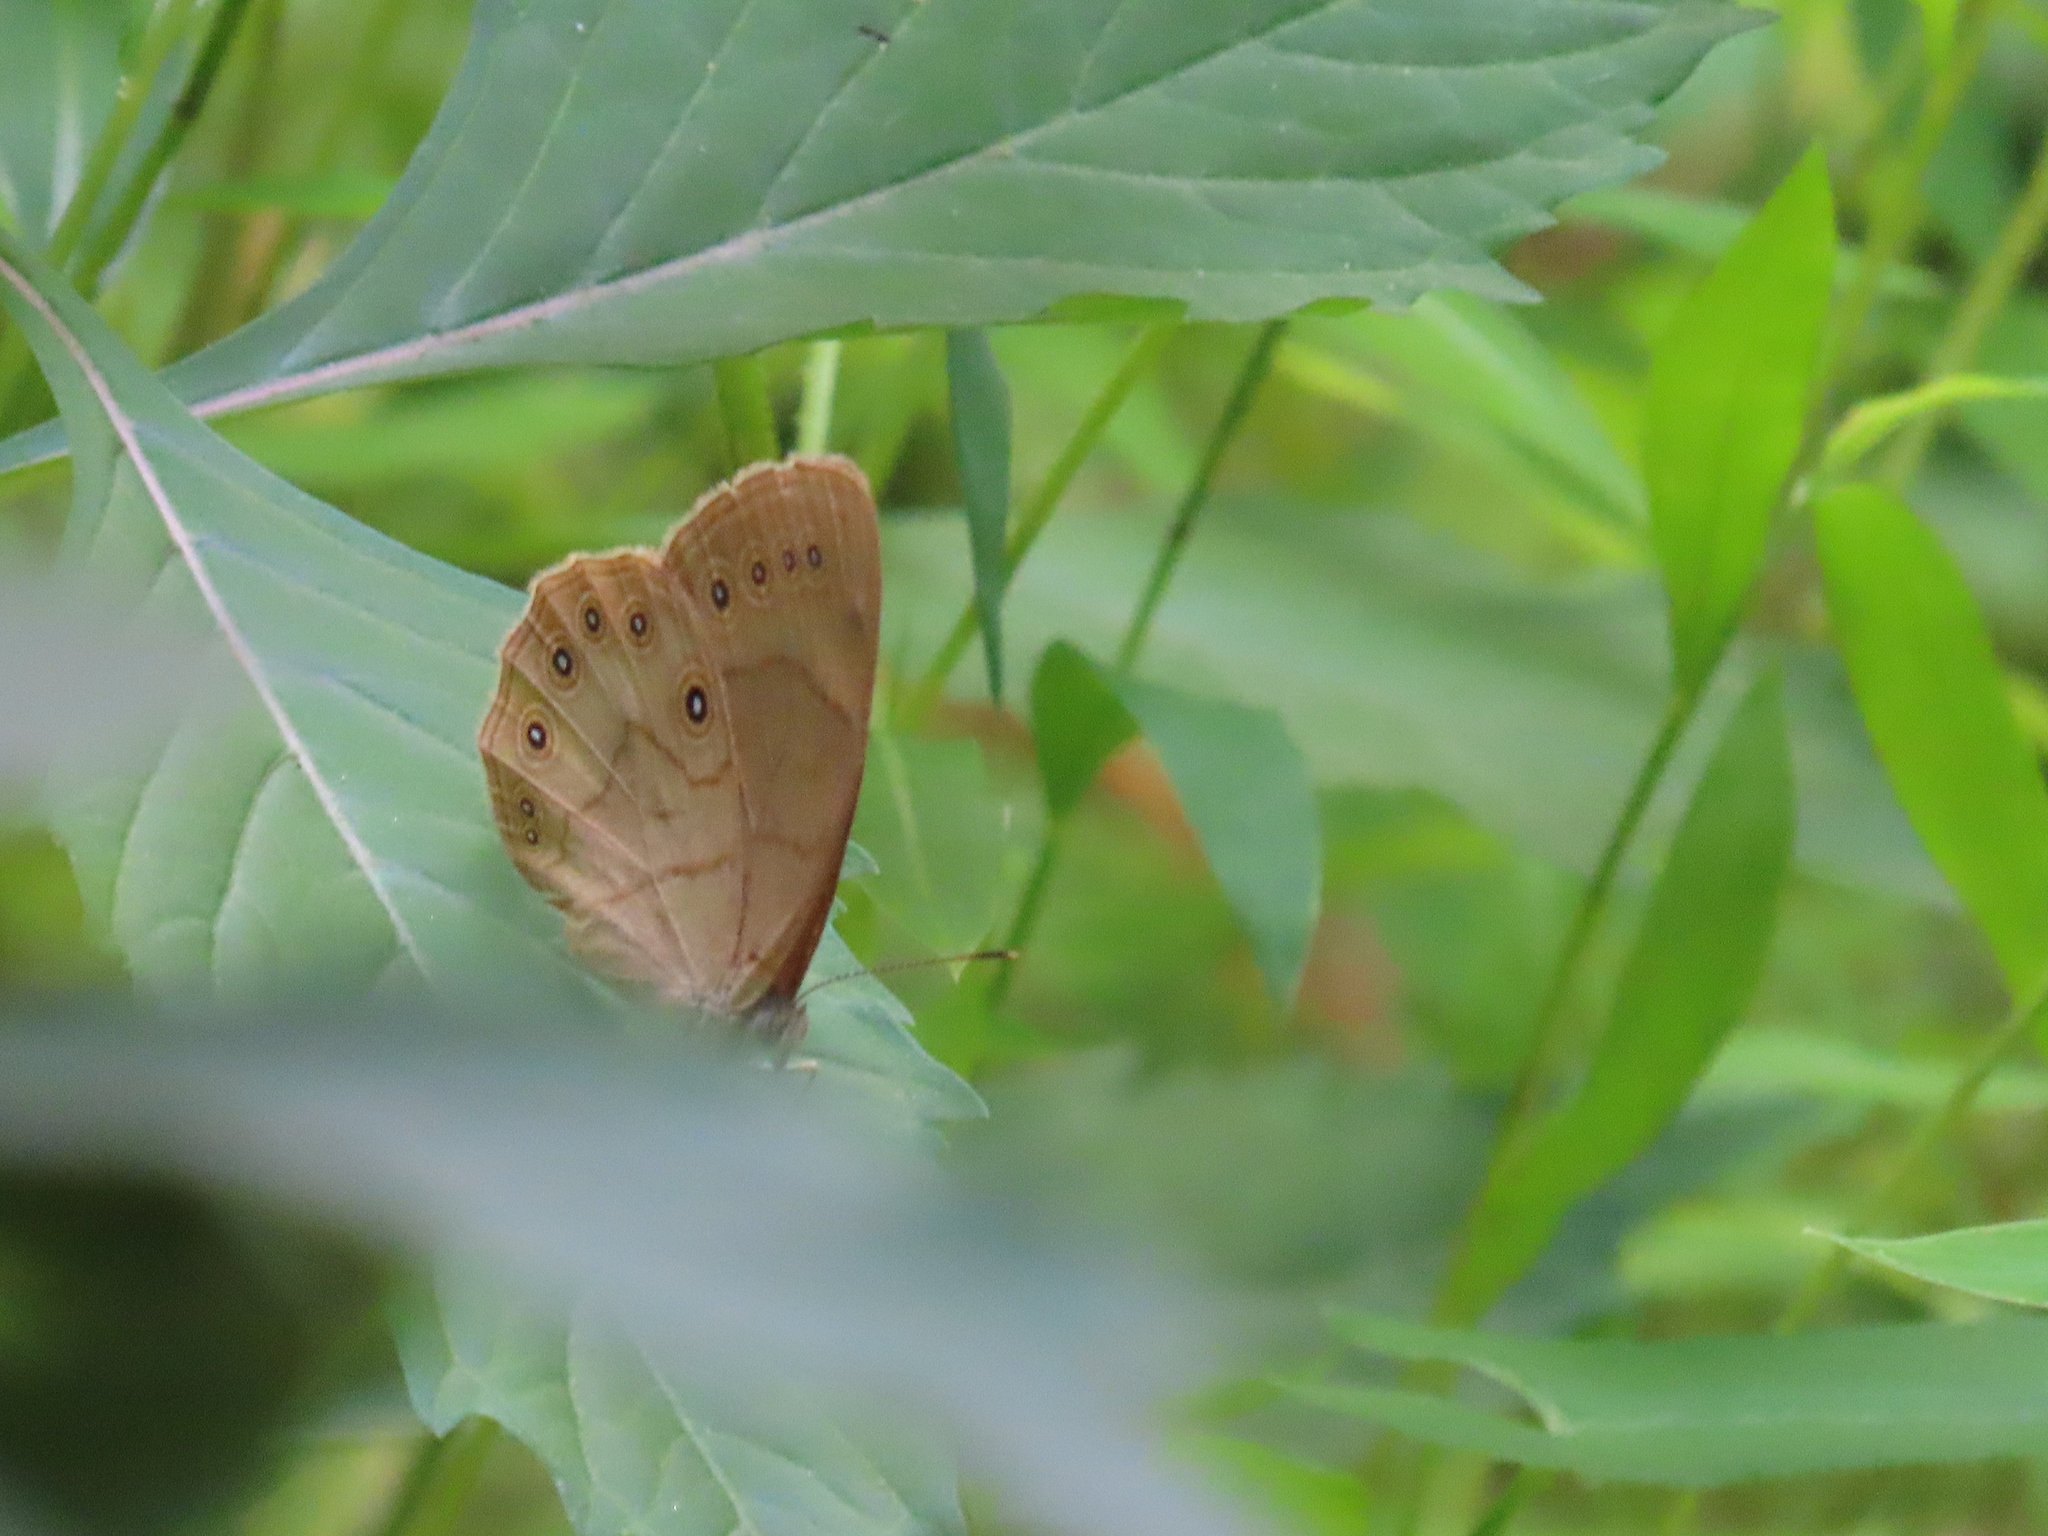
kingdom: Animalia
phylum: Arthropoda
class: Insecta
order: Lepidoptera
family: Nymphalidae
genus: Lethe
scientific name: Lethe eurydice
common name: Eyed brown
